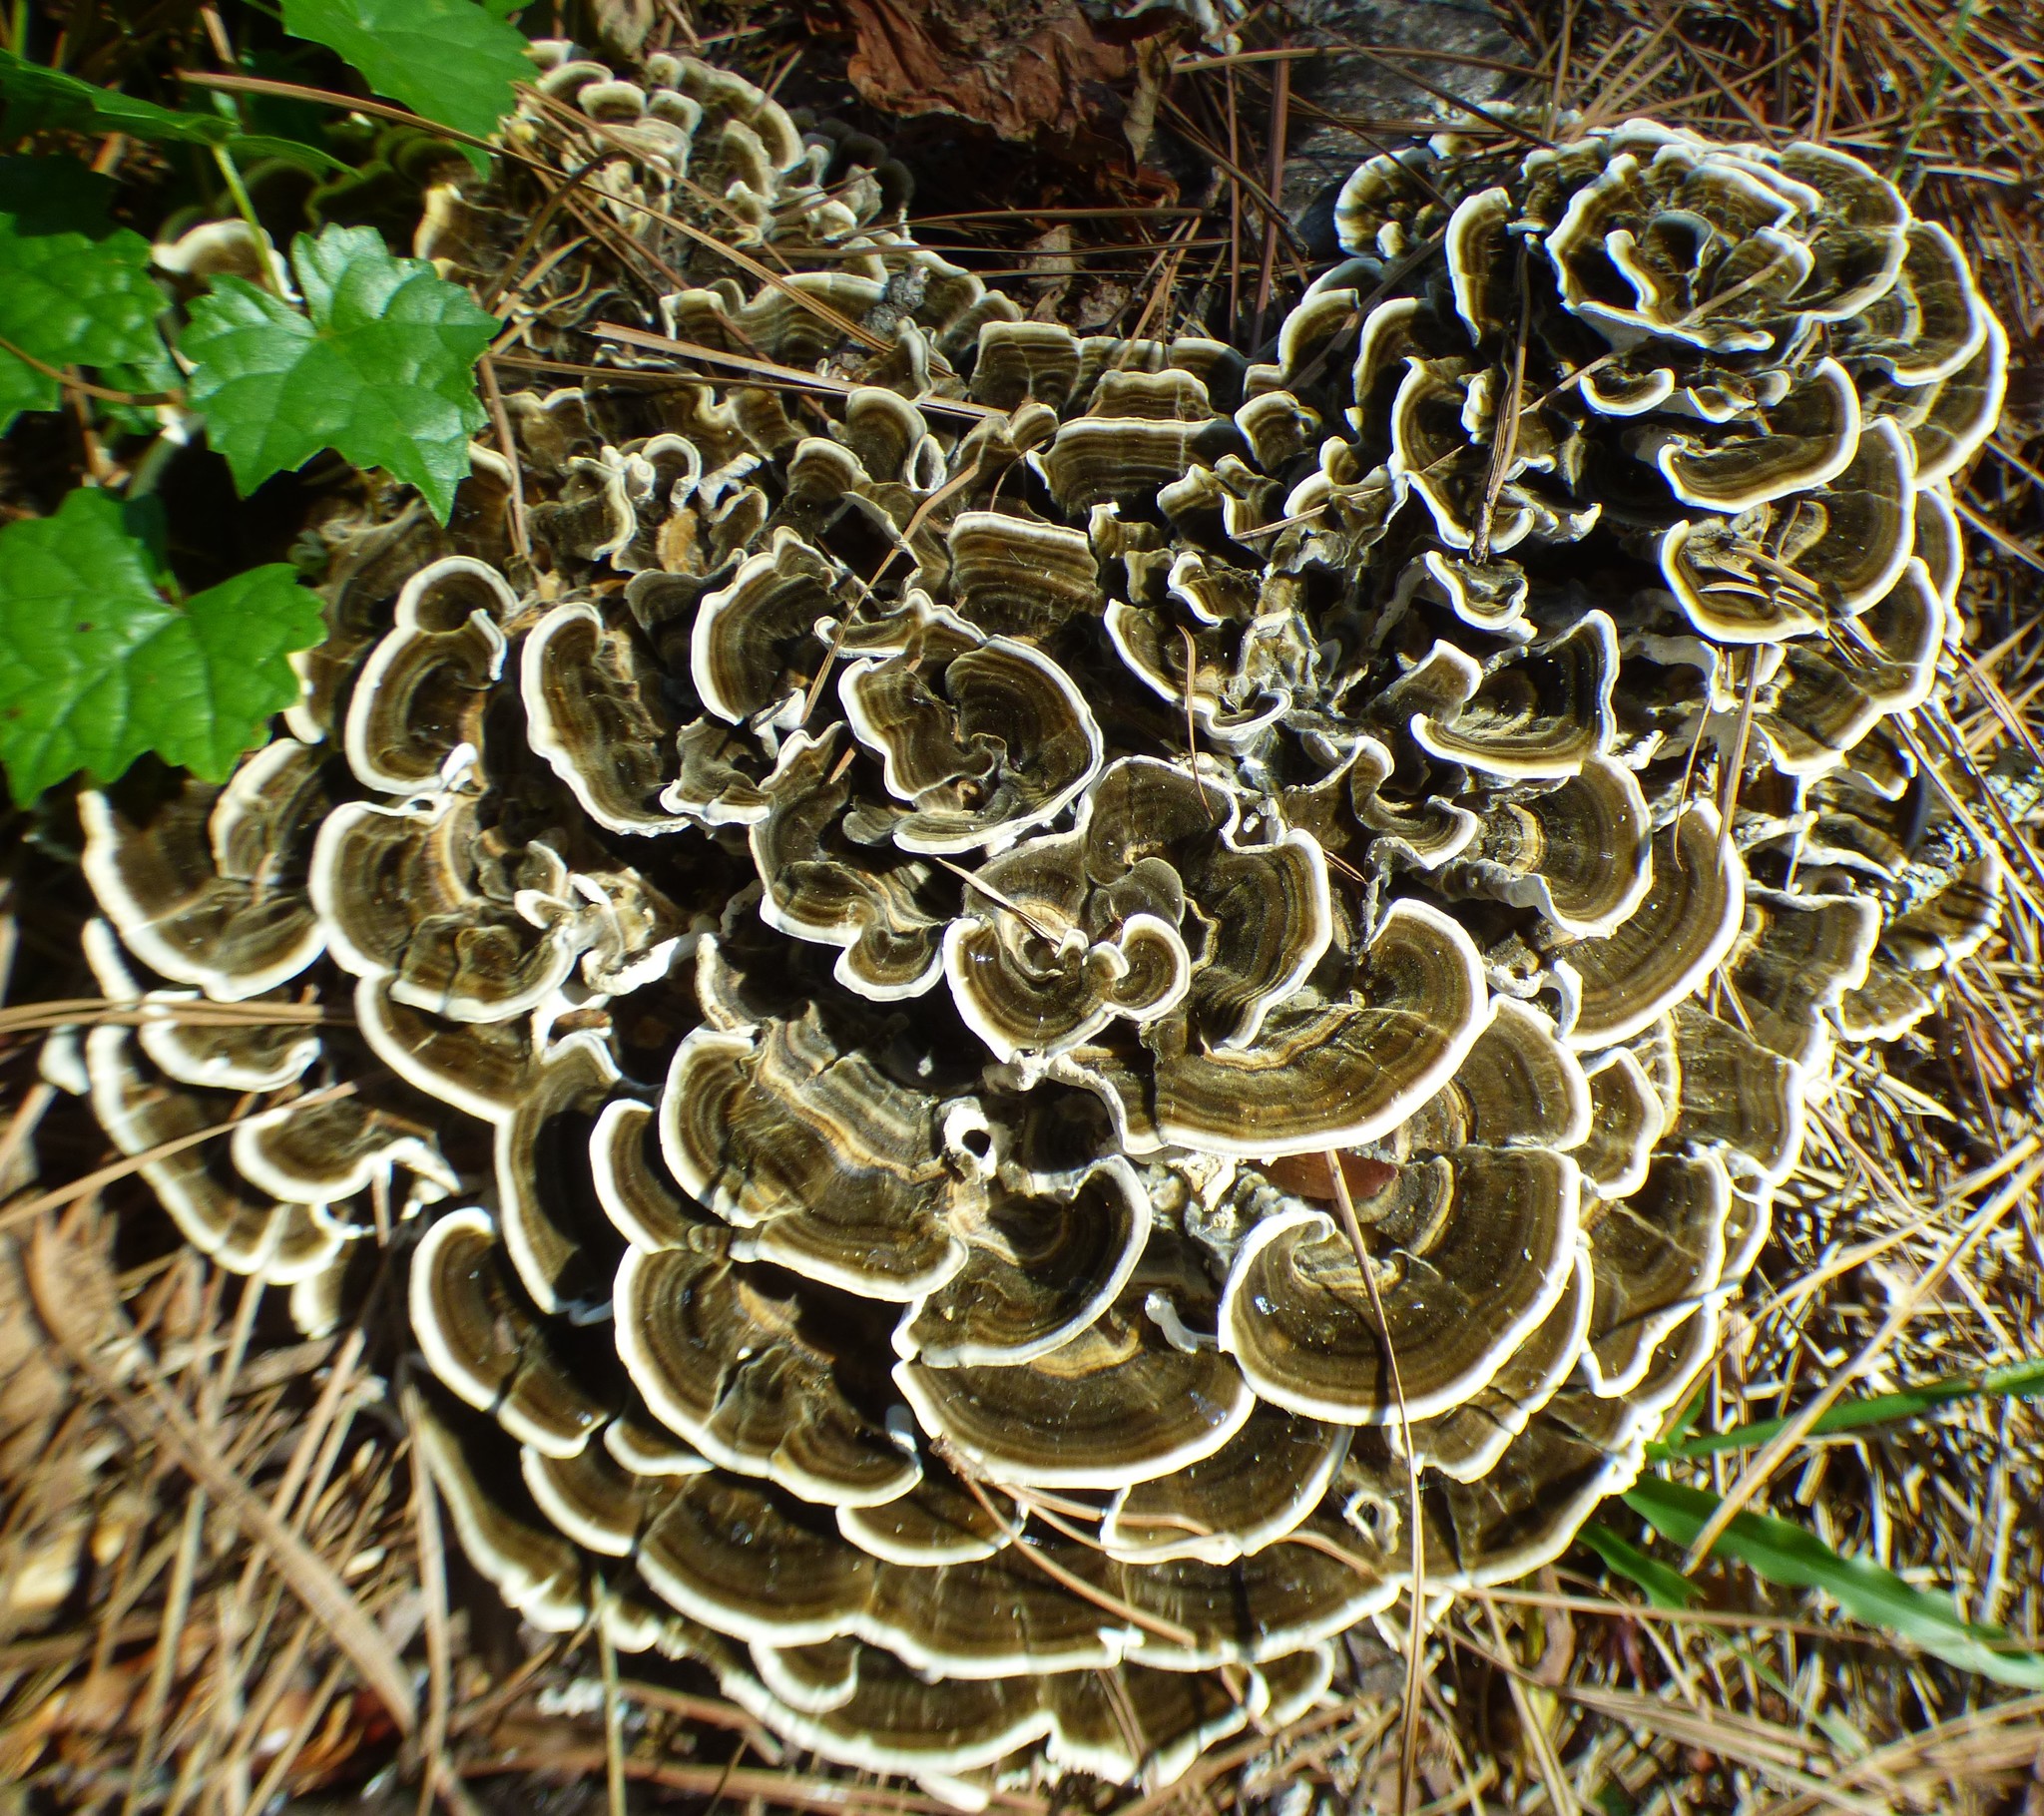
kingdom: Fungi
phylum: Basidiomycota
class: Agaricomycetes
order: Polyporales
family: Polyporaceae
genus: Trametes
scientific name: Trametes versicolor
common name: Turkeytail
